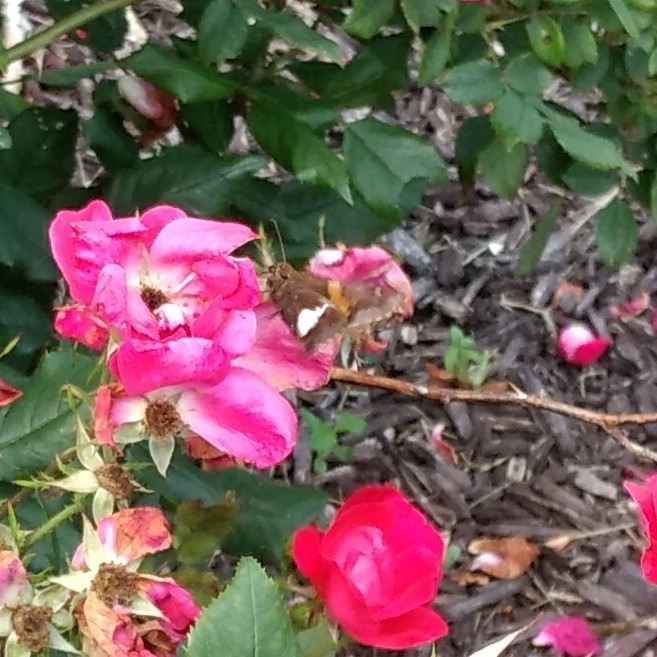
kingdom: Animalia
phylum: Arthropoda
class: Insecta
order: Lepidoptera
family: Hesperiidae
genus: Epargyreus
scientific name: Epargyreus clarus
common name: Silver-spotted skipper
